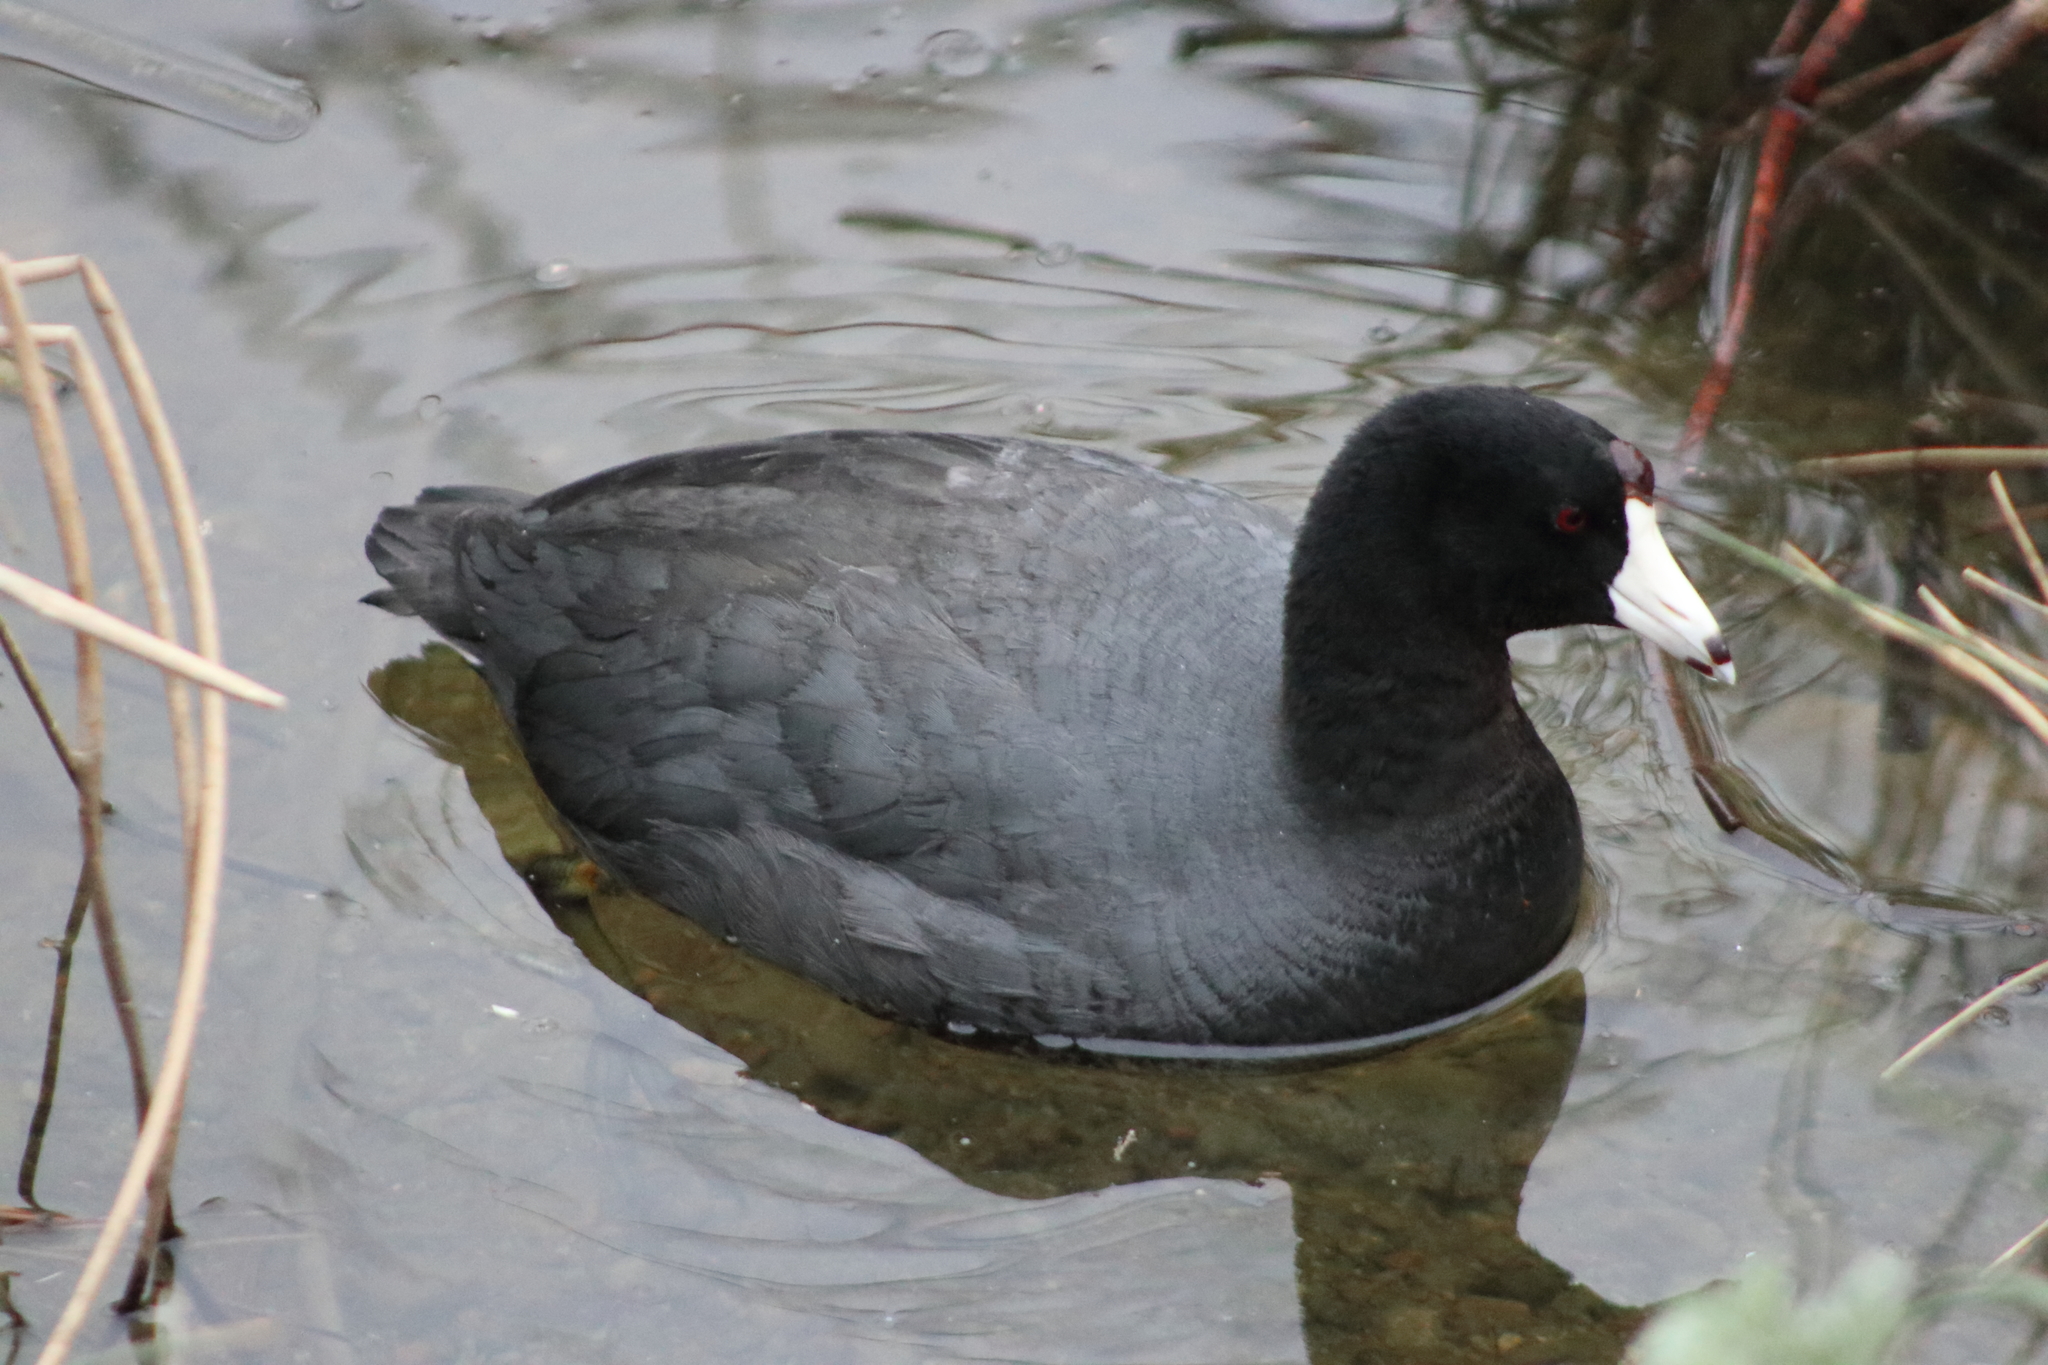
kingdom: Animalia
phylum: Chordata
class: Aves
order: Gruiformes
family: Rallidae
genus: Fulica
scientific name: Fulica americana
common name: American coot
